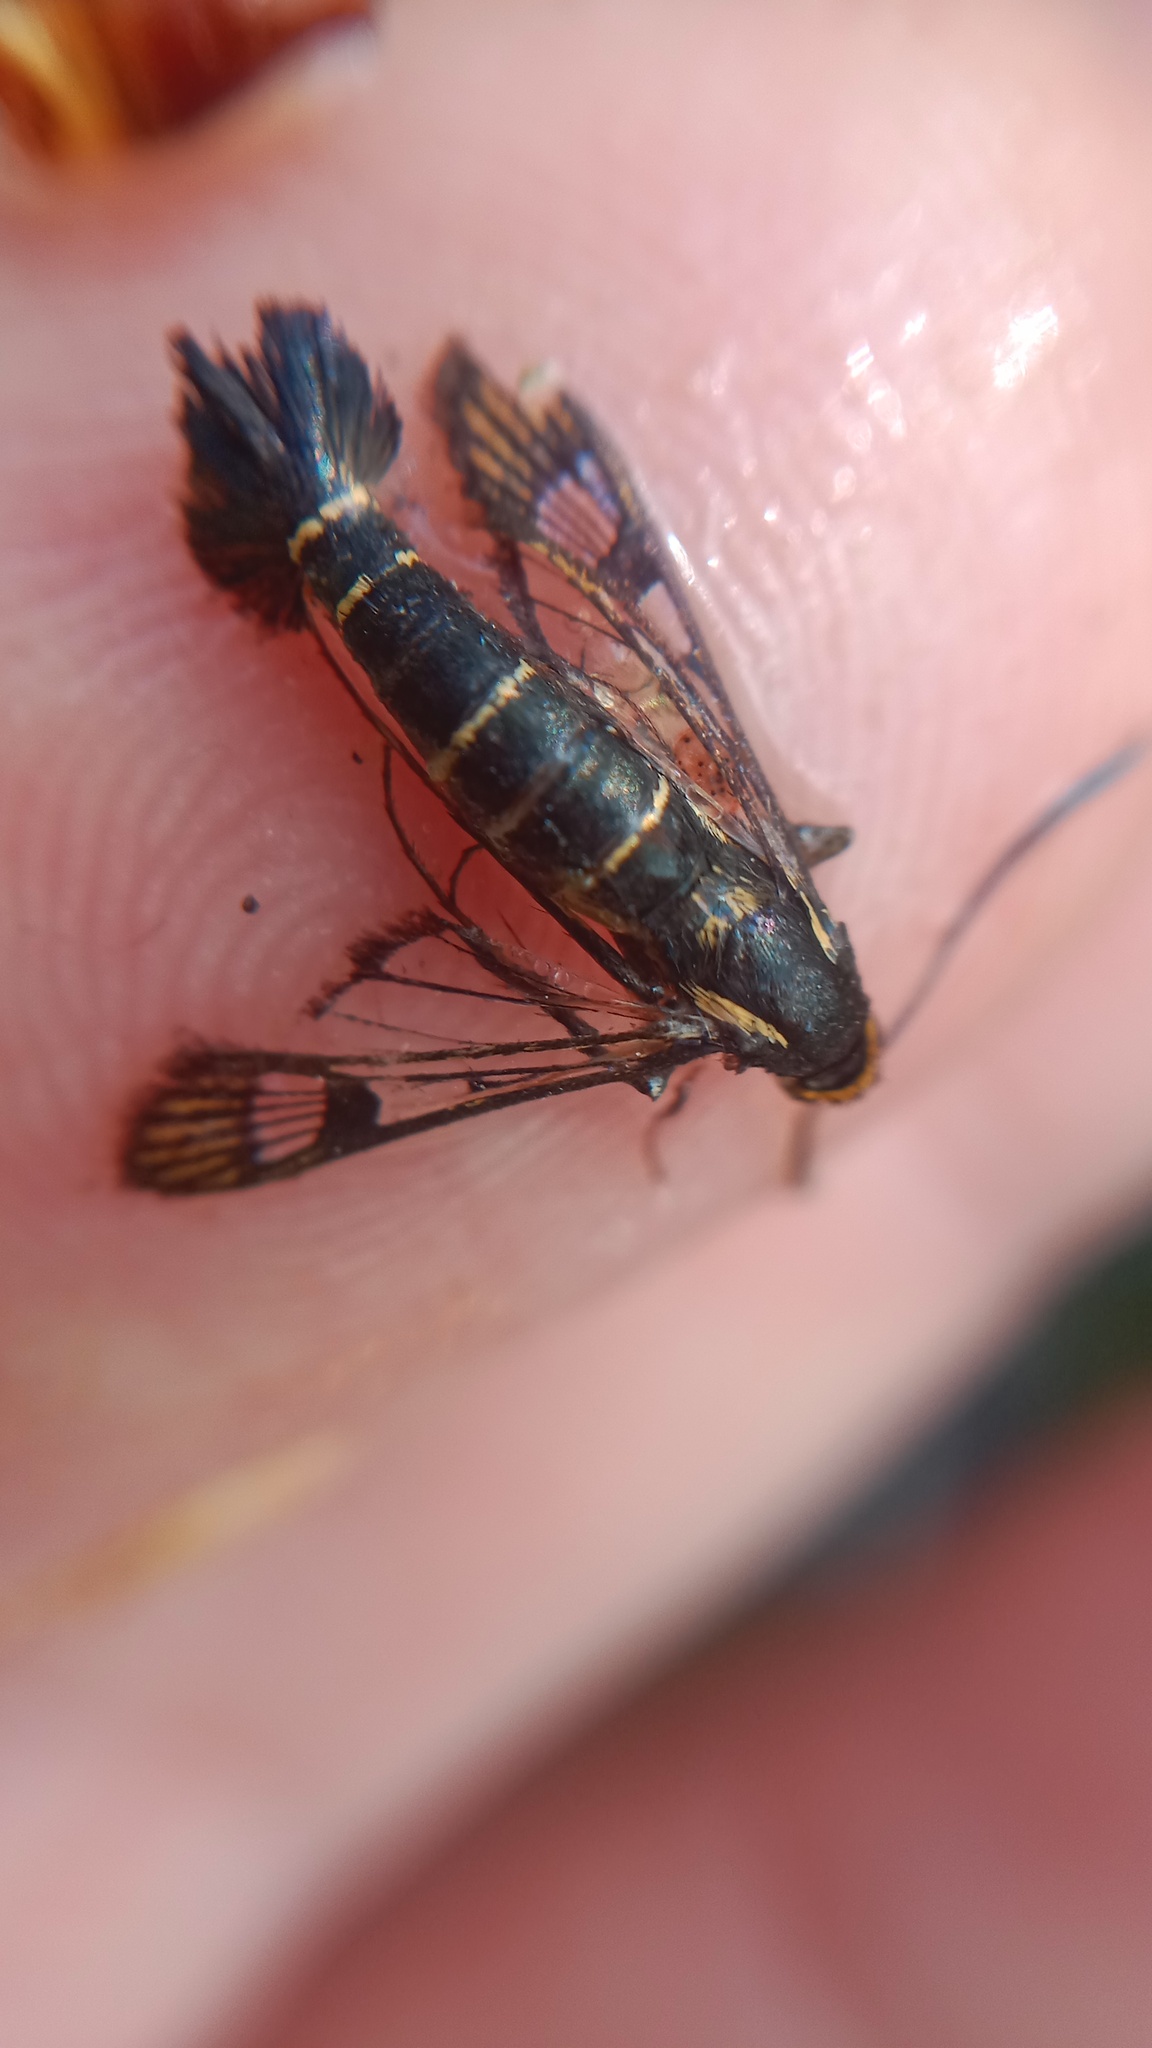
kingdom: Animalia
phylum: Arthropoda
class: Insecta
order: Lepidoptera
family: Sesiidae
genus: Synanthedon
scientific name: Synanthedon tipuliformis
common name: Currant clearwing
